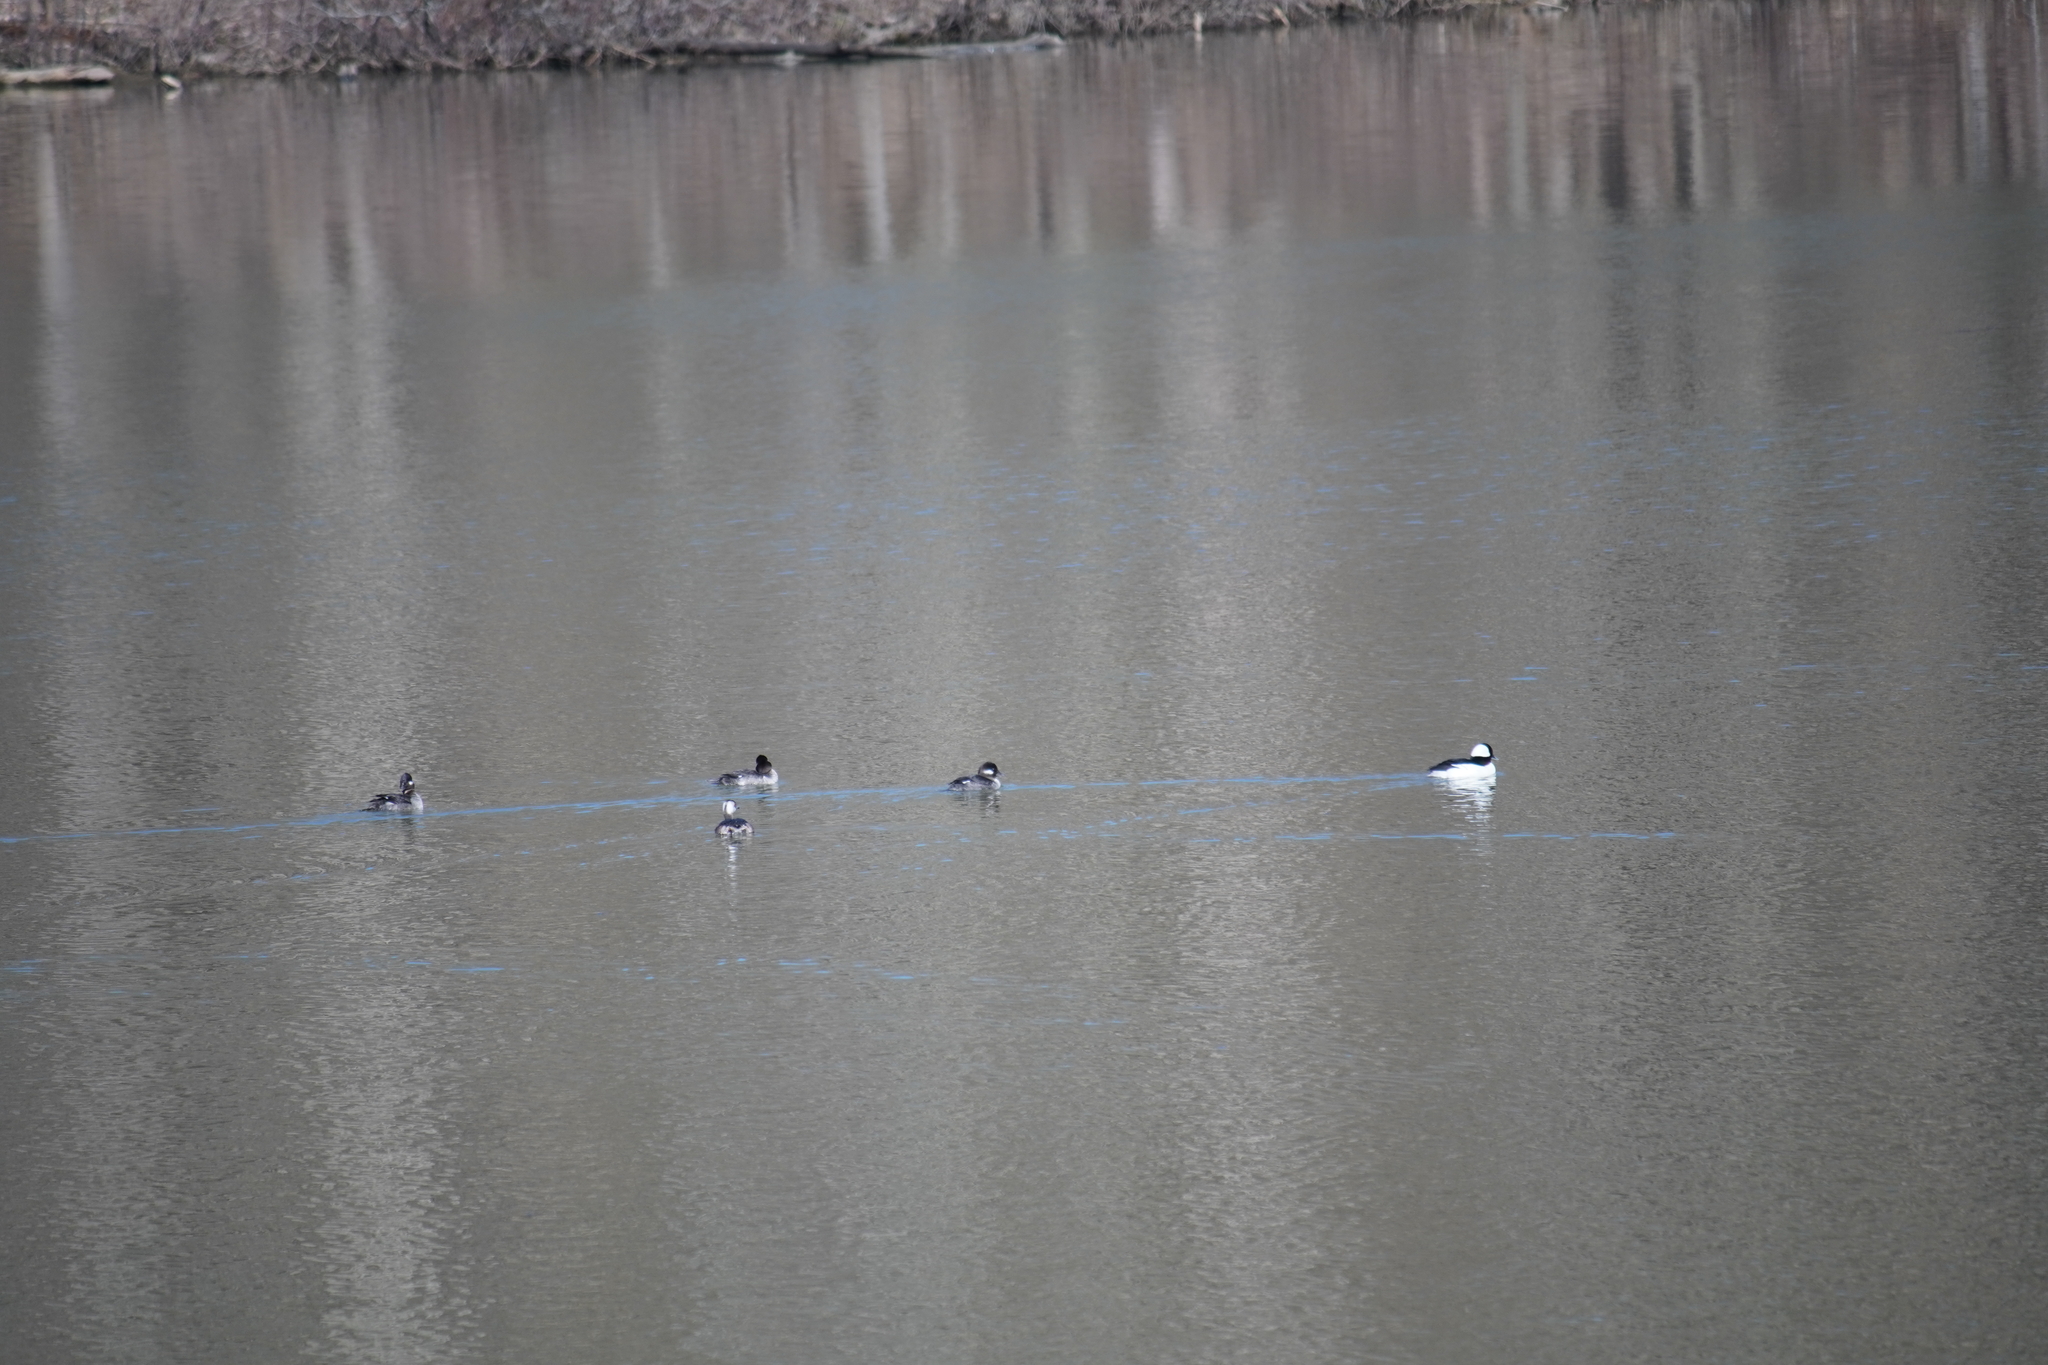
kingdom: Animalia
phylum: Chordata
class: Aves
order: Anseriformes
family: Anatidae
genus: Bucephala
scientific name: Bucephala albeola
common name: Bufflehead
